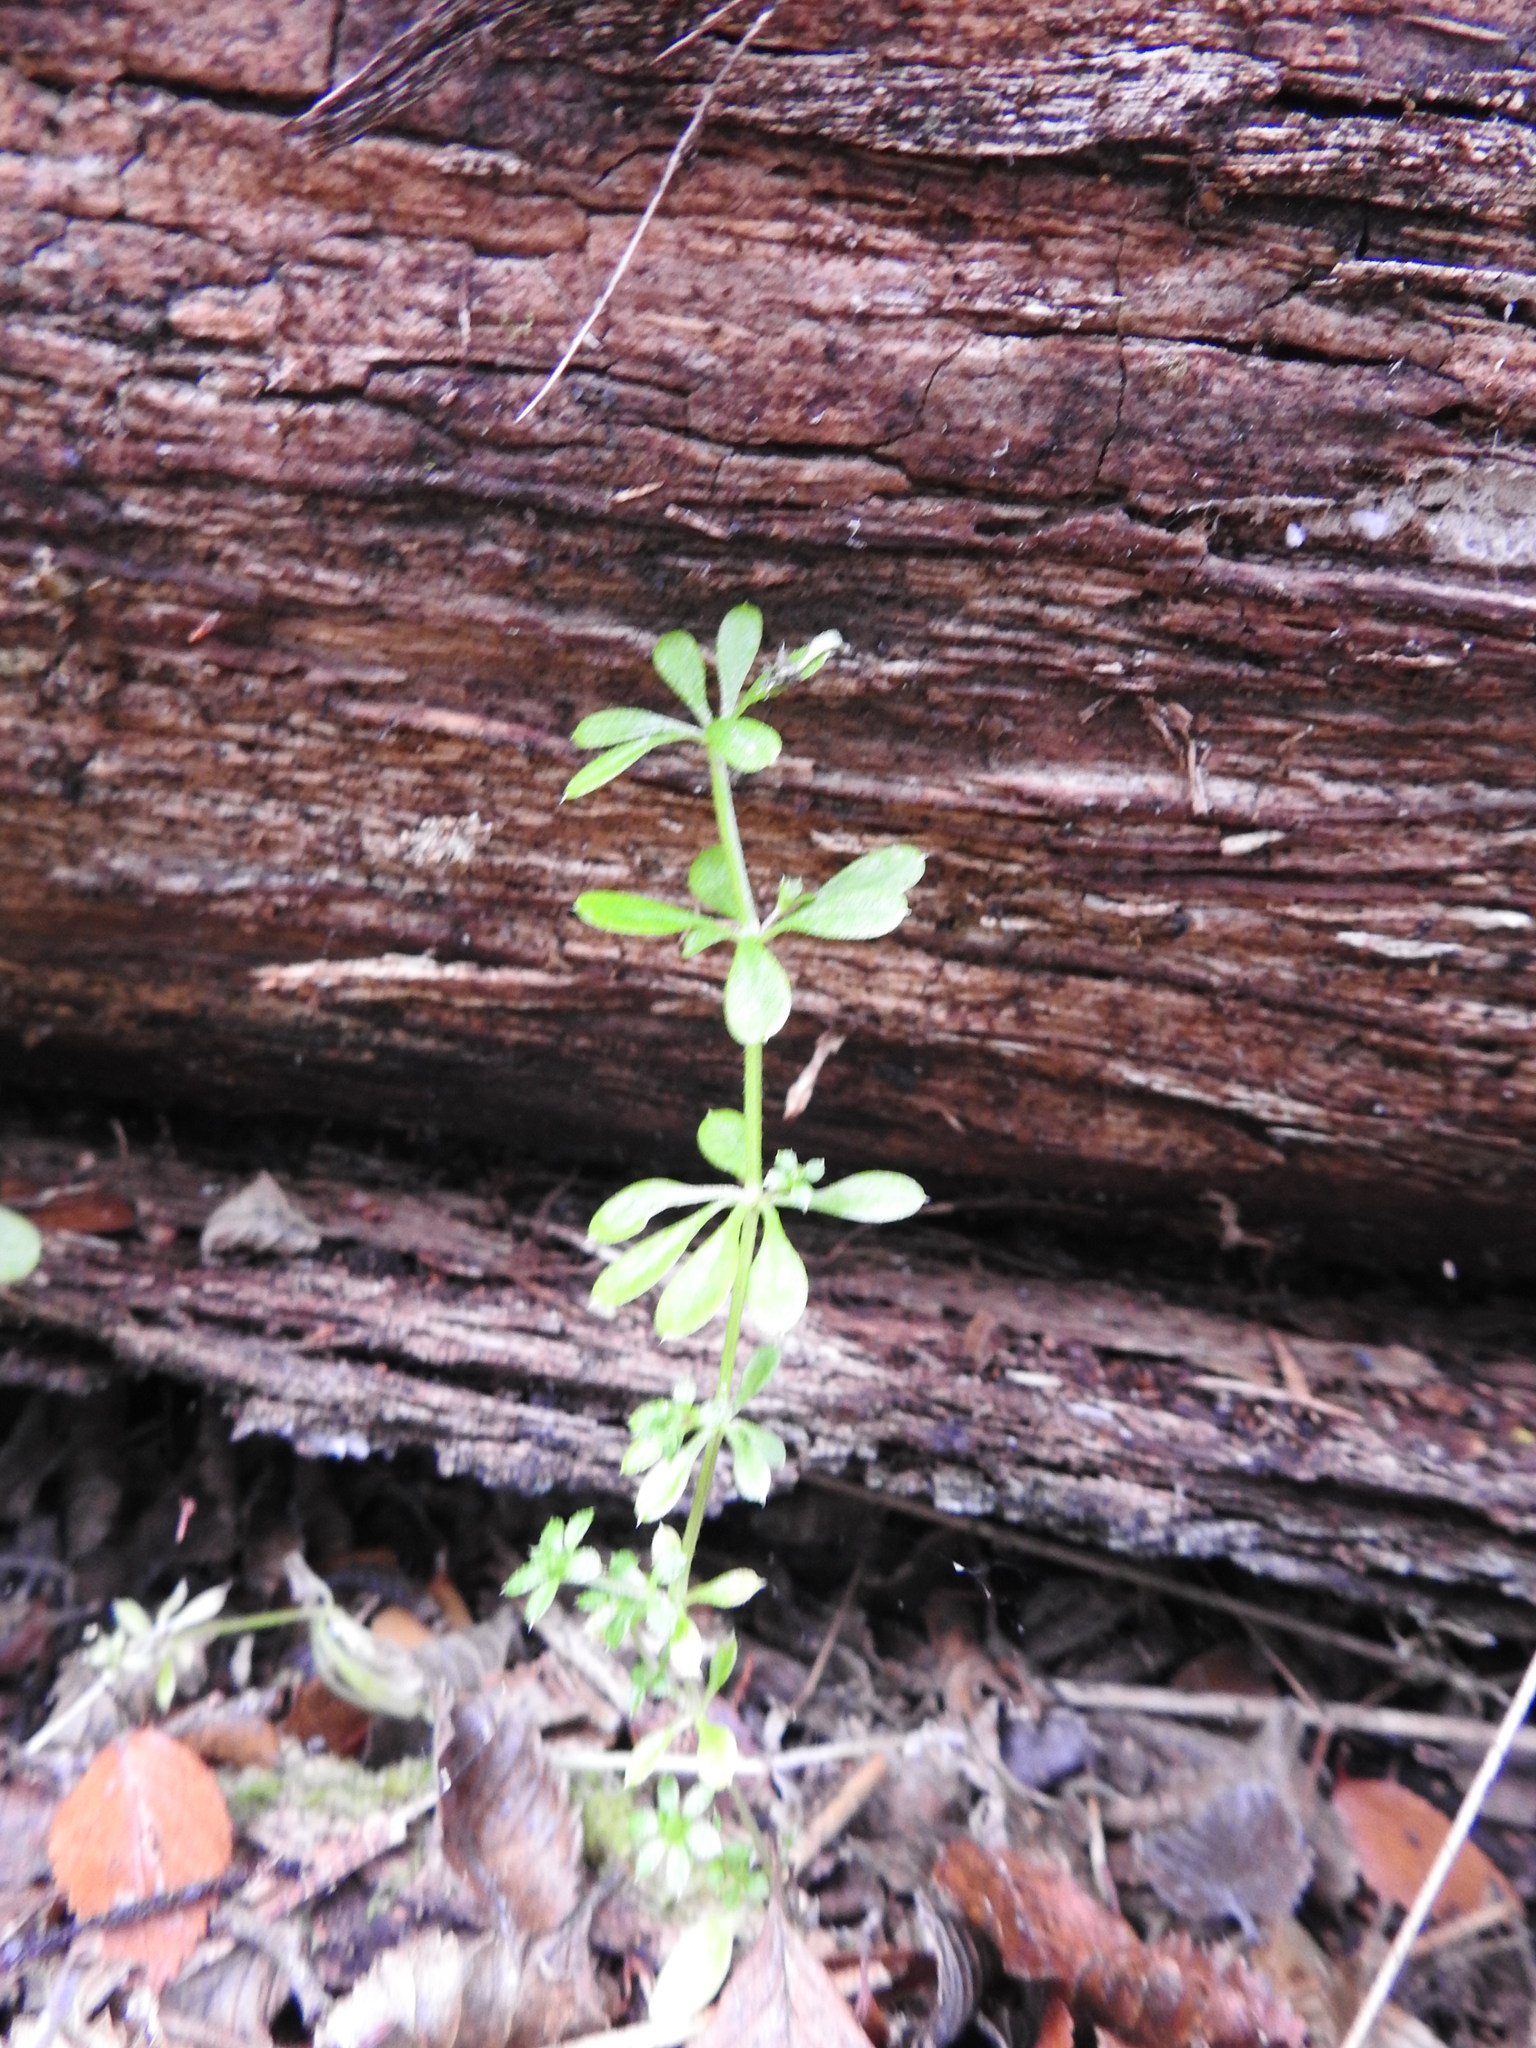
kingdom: Plantae
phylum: Tracheophyta
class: Magnoliopsida
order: Gentianales
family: Rubiaceae
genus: Galium
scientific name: Galium aparine
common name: Cleavers
